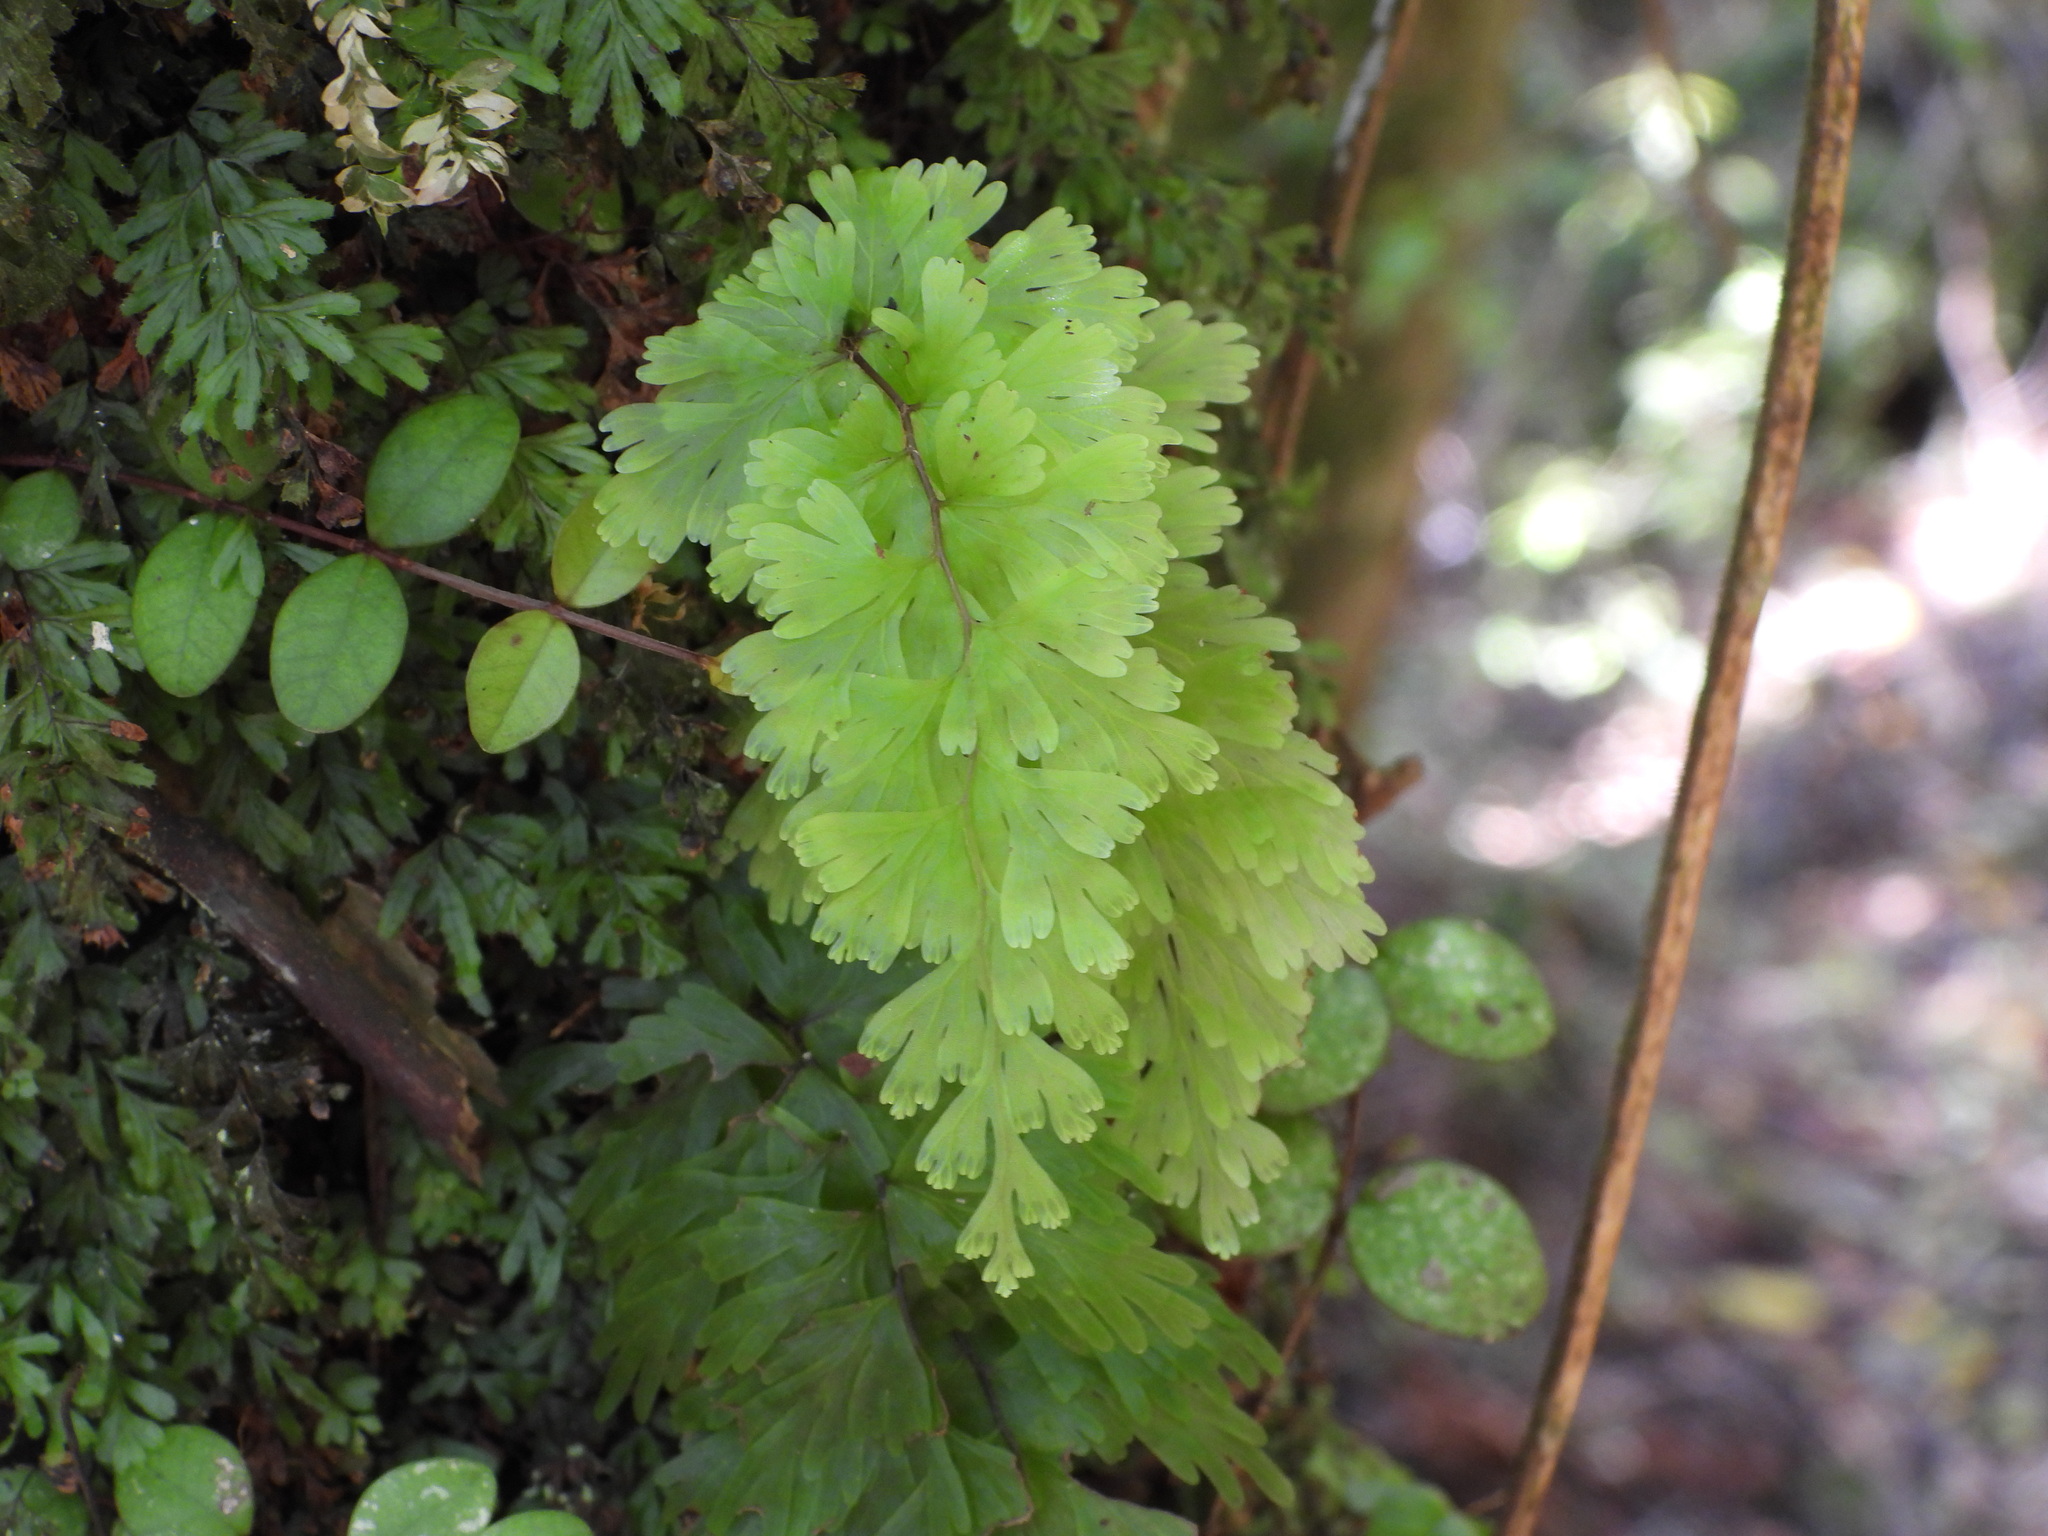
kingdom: Plantae
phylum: Tracheophyta
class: Polypodiopsida
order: Hymenophyllales
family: Hymenophyllaceae
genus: Hymenophyllum
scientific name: Hymenophyllum flabellatum
